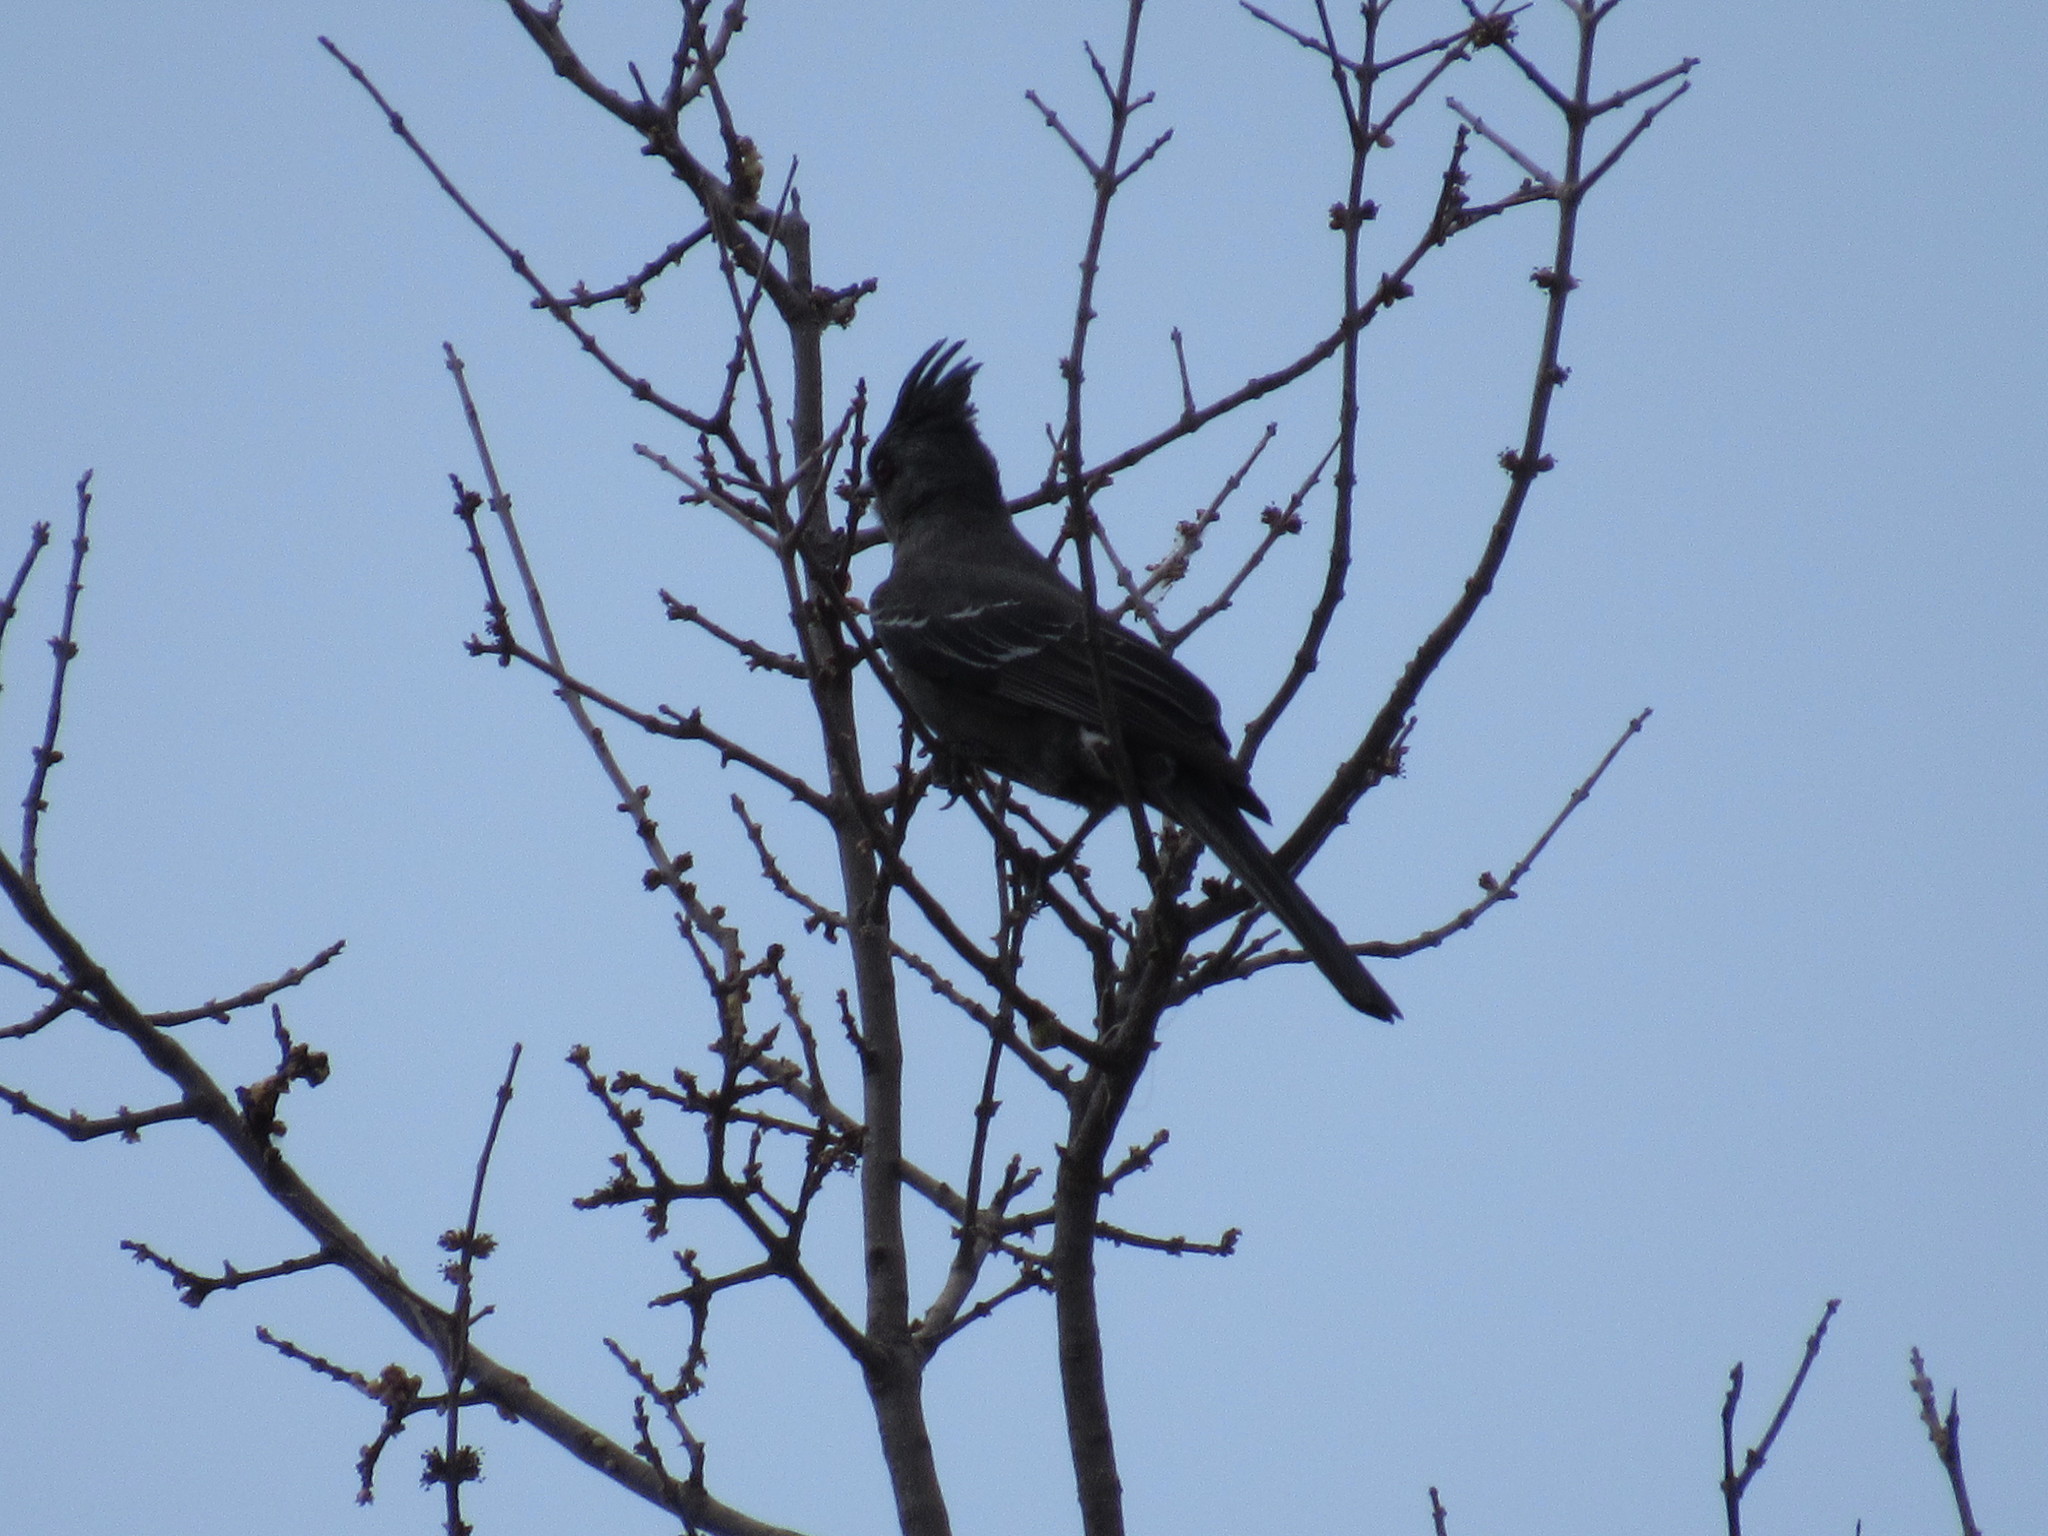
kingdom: Animalia
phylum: Chordata
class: Aves
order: Passeriformes
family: Ptilogonatidae
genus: Phainopepla
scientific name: Phainopepla nitens
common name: Phainopepla
